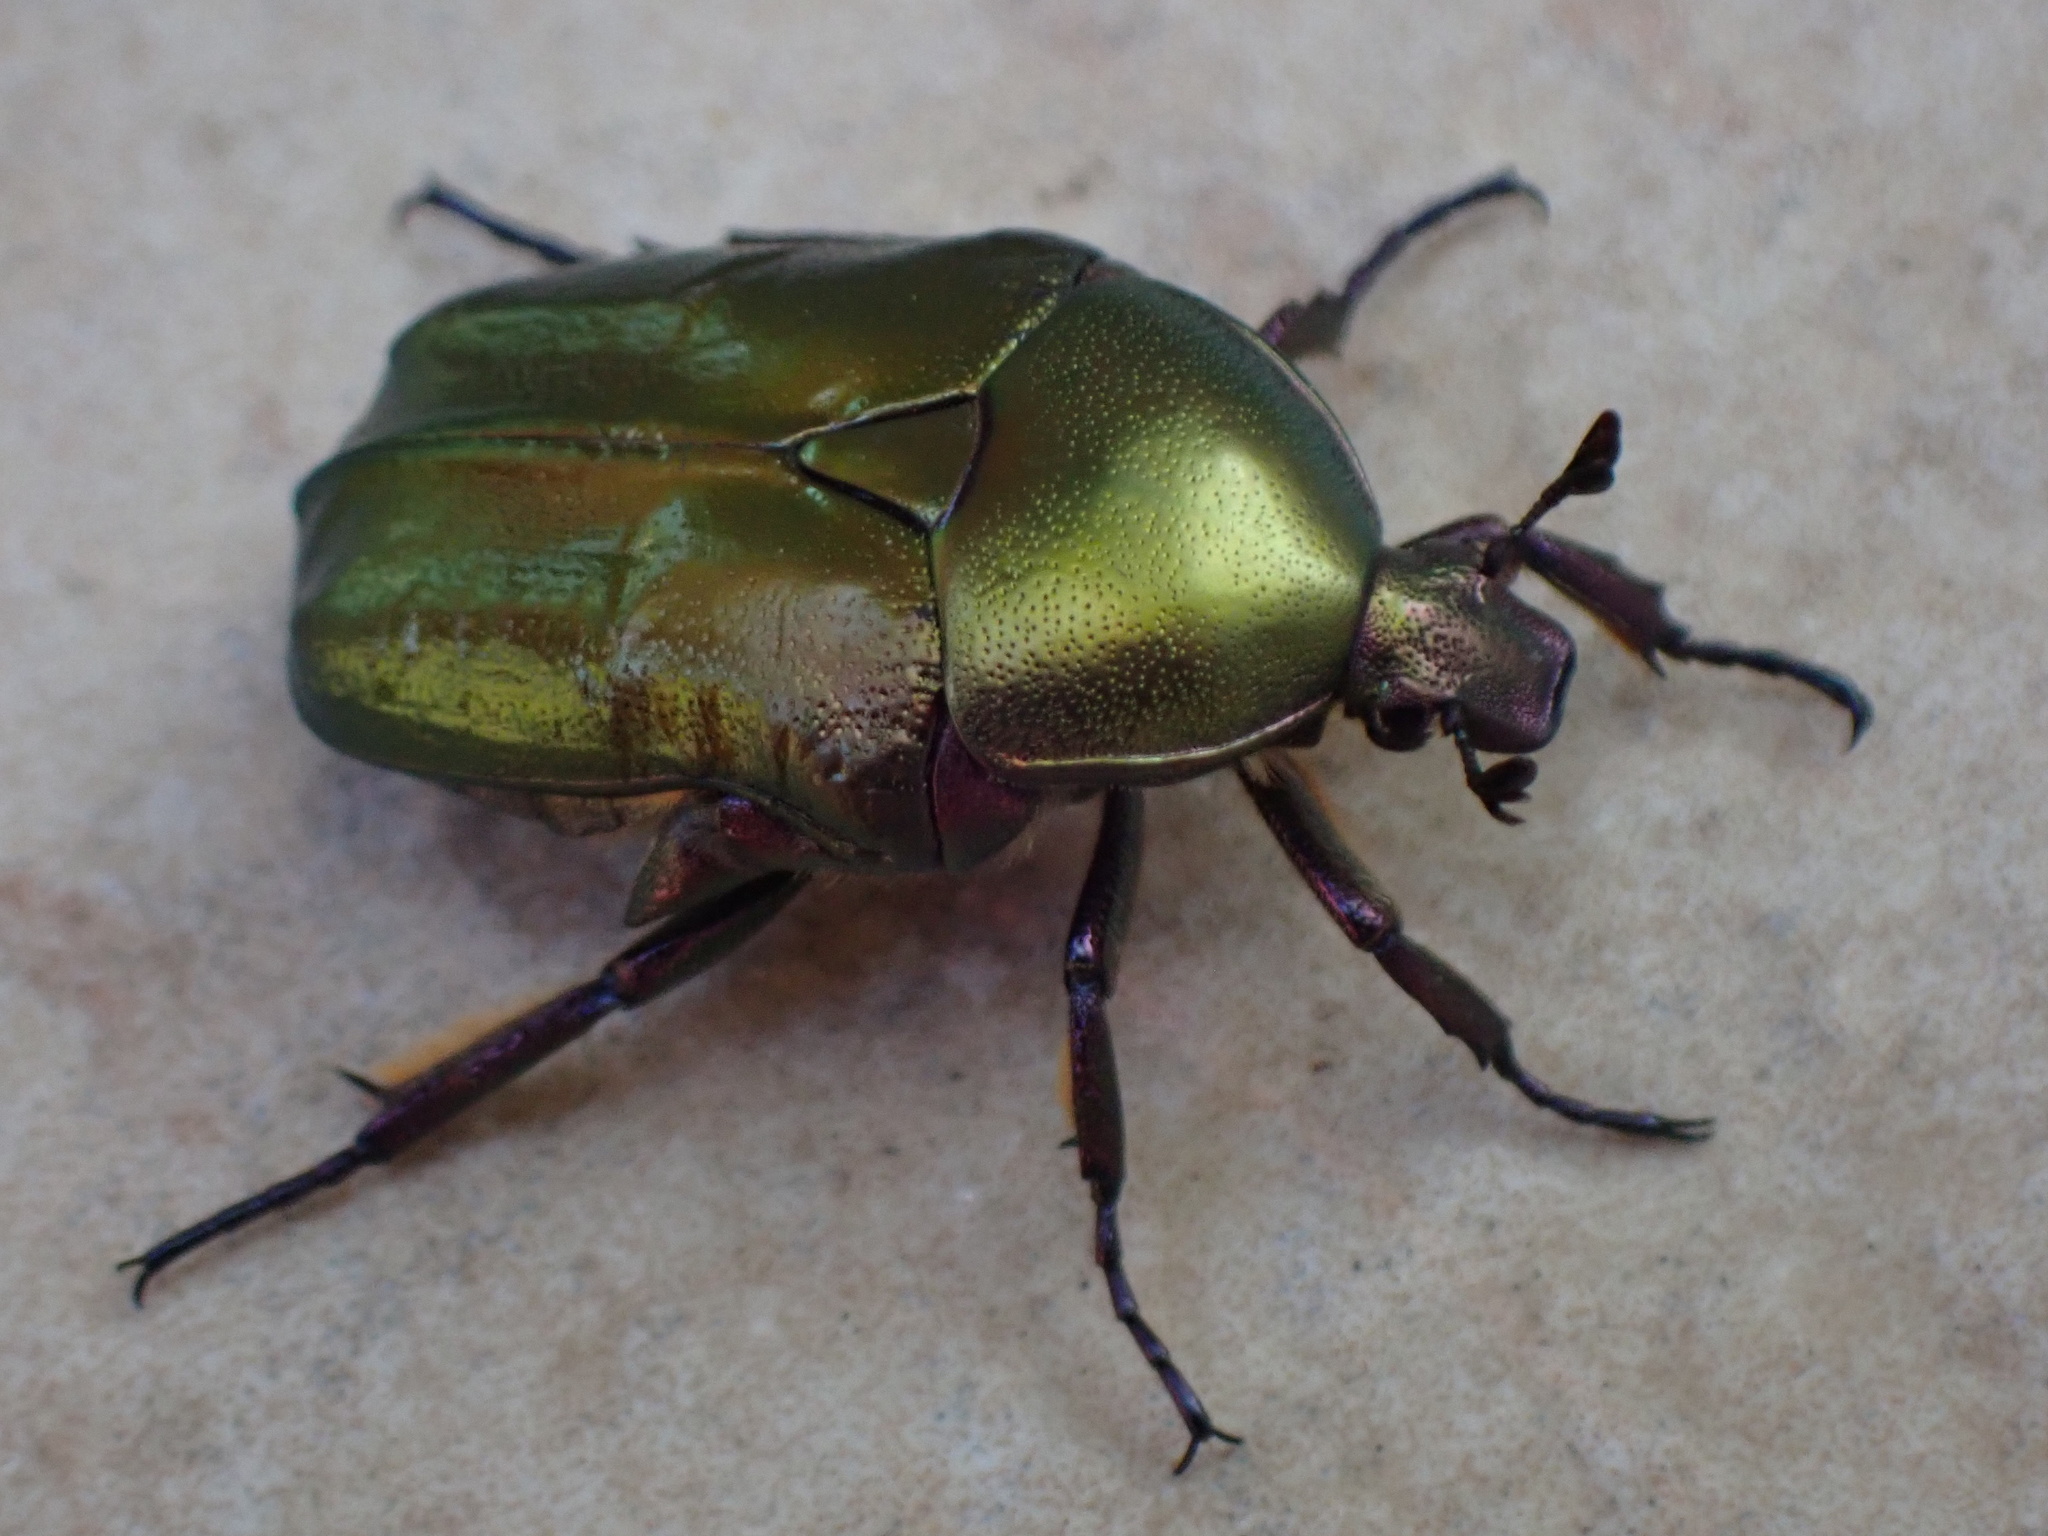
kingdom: Animalia
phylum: Arthropoda
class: Insecta
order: Coleoptera
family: Scarabaeidae
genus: Protaetia
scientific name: Protaetia cuprea
